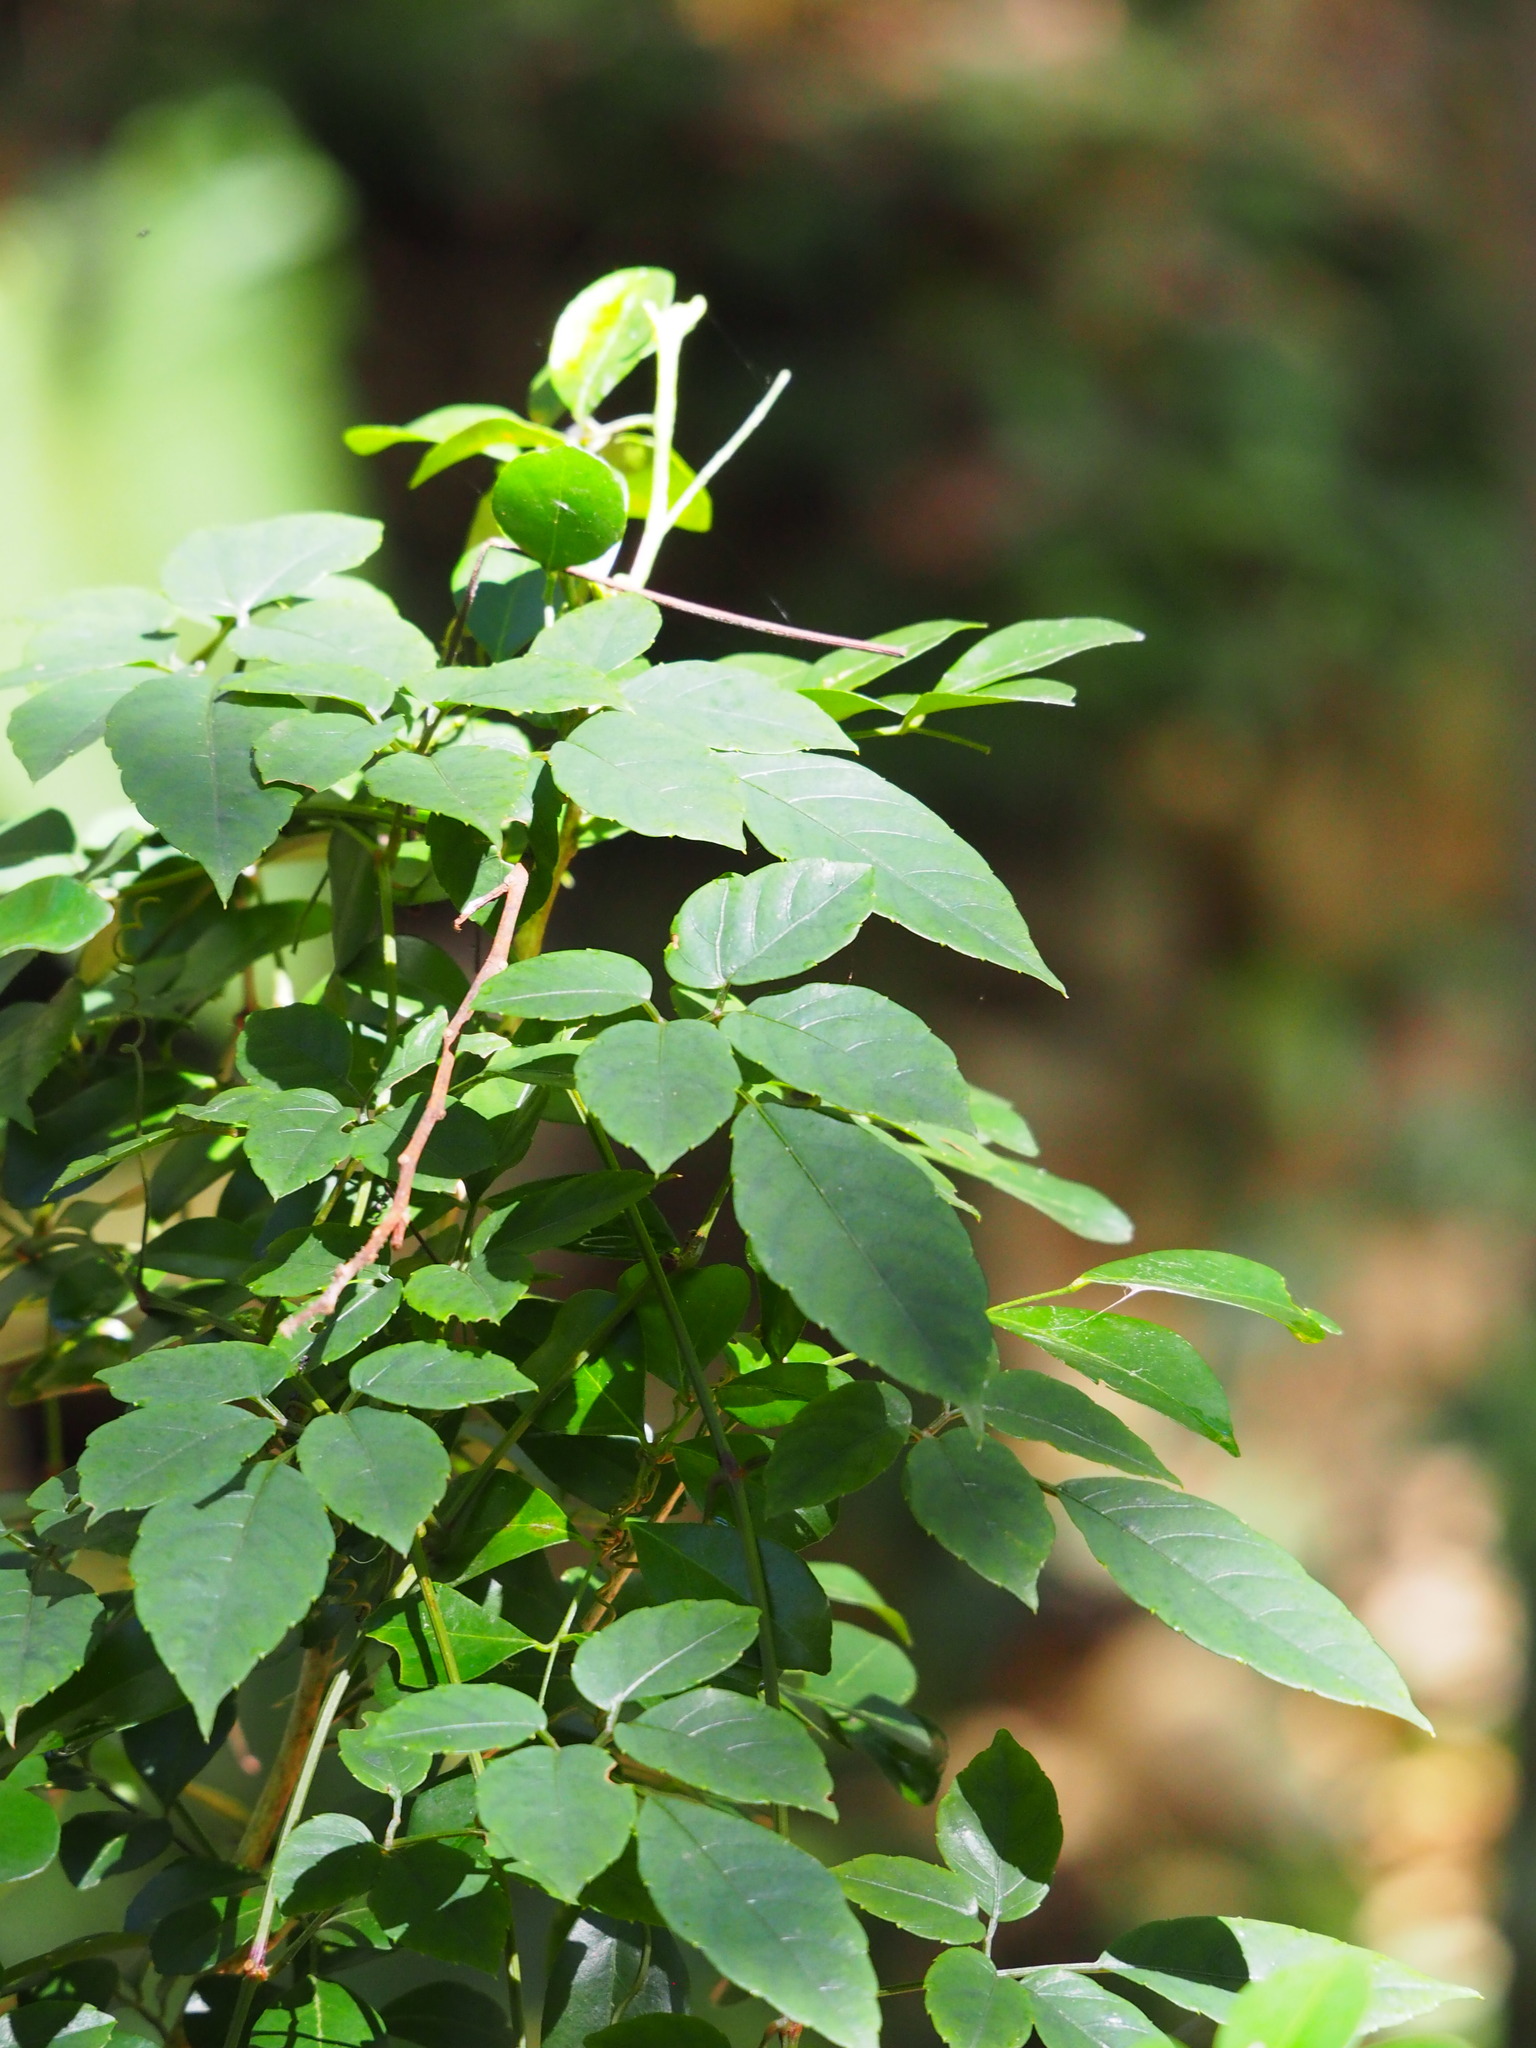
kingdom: Plantae
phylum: Tracheophyta
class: Magnoliopsida
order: Vitales
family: Vitaceae
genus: Causonis
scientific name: Causonis corniculata
